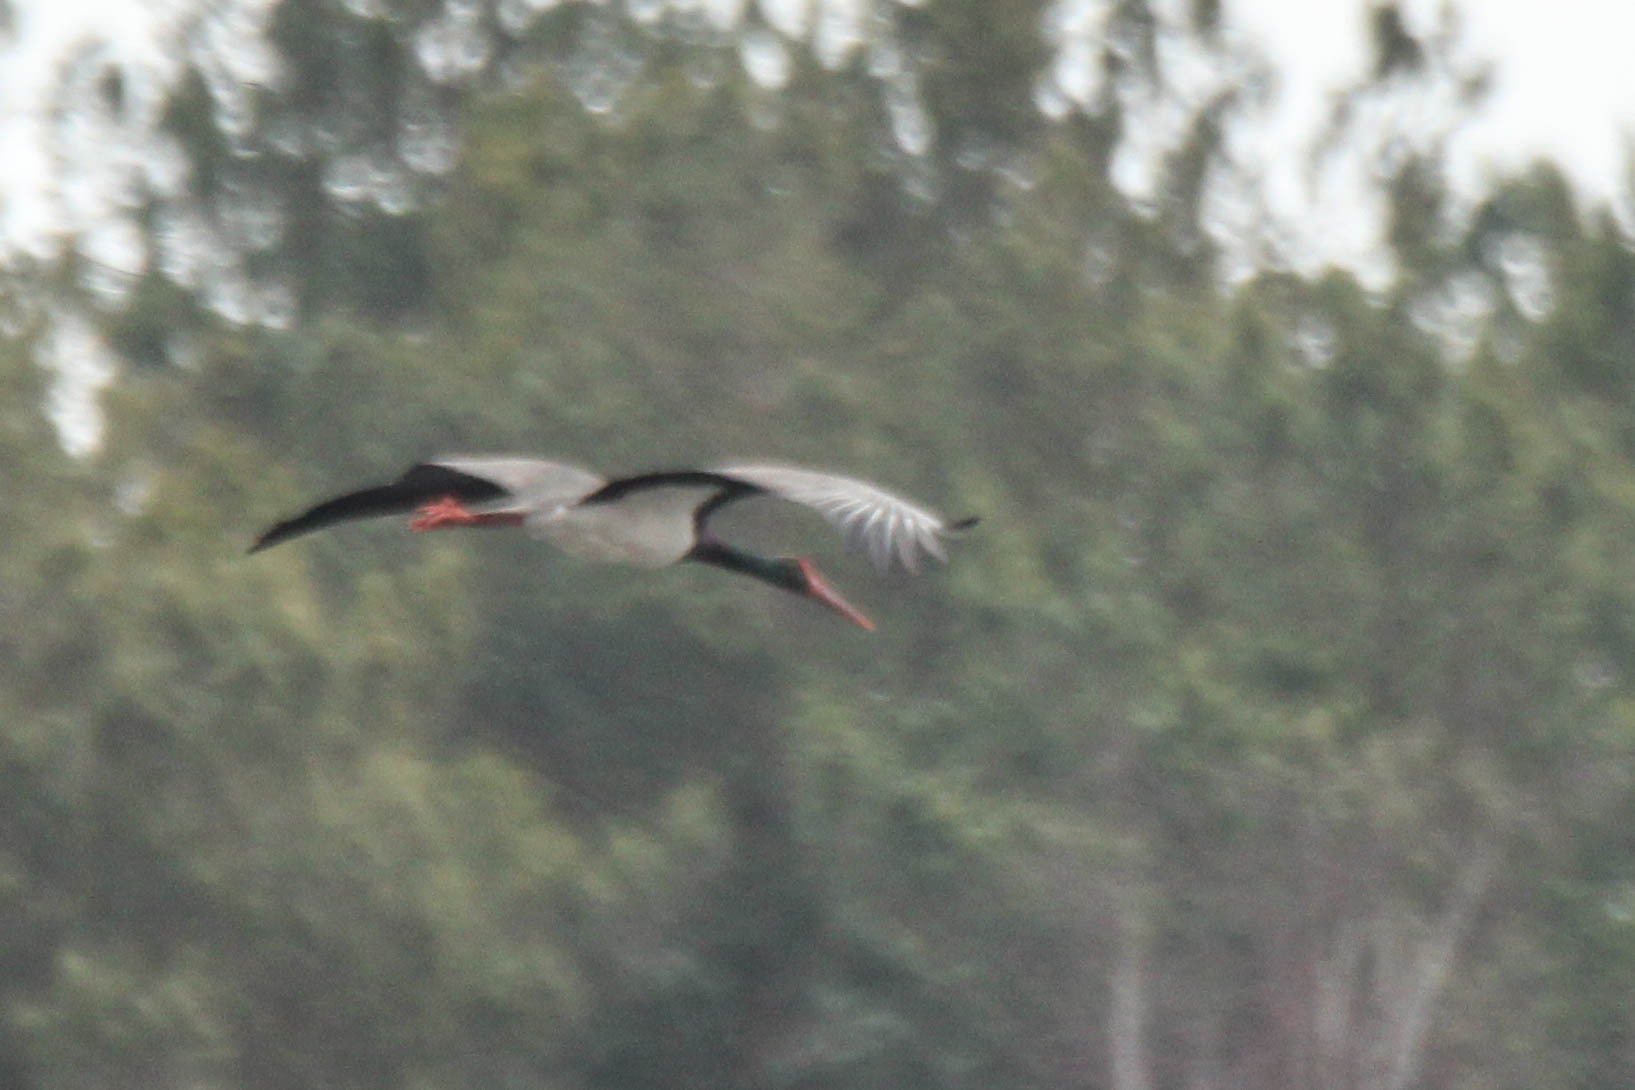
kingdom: Animalia
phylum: Chordata
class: Aves
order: Ciconiiformes
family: Ciconiidae
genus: Ciconia
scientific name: Ciconia nigra
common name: Black stork
